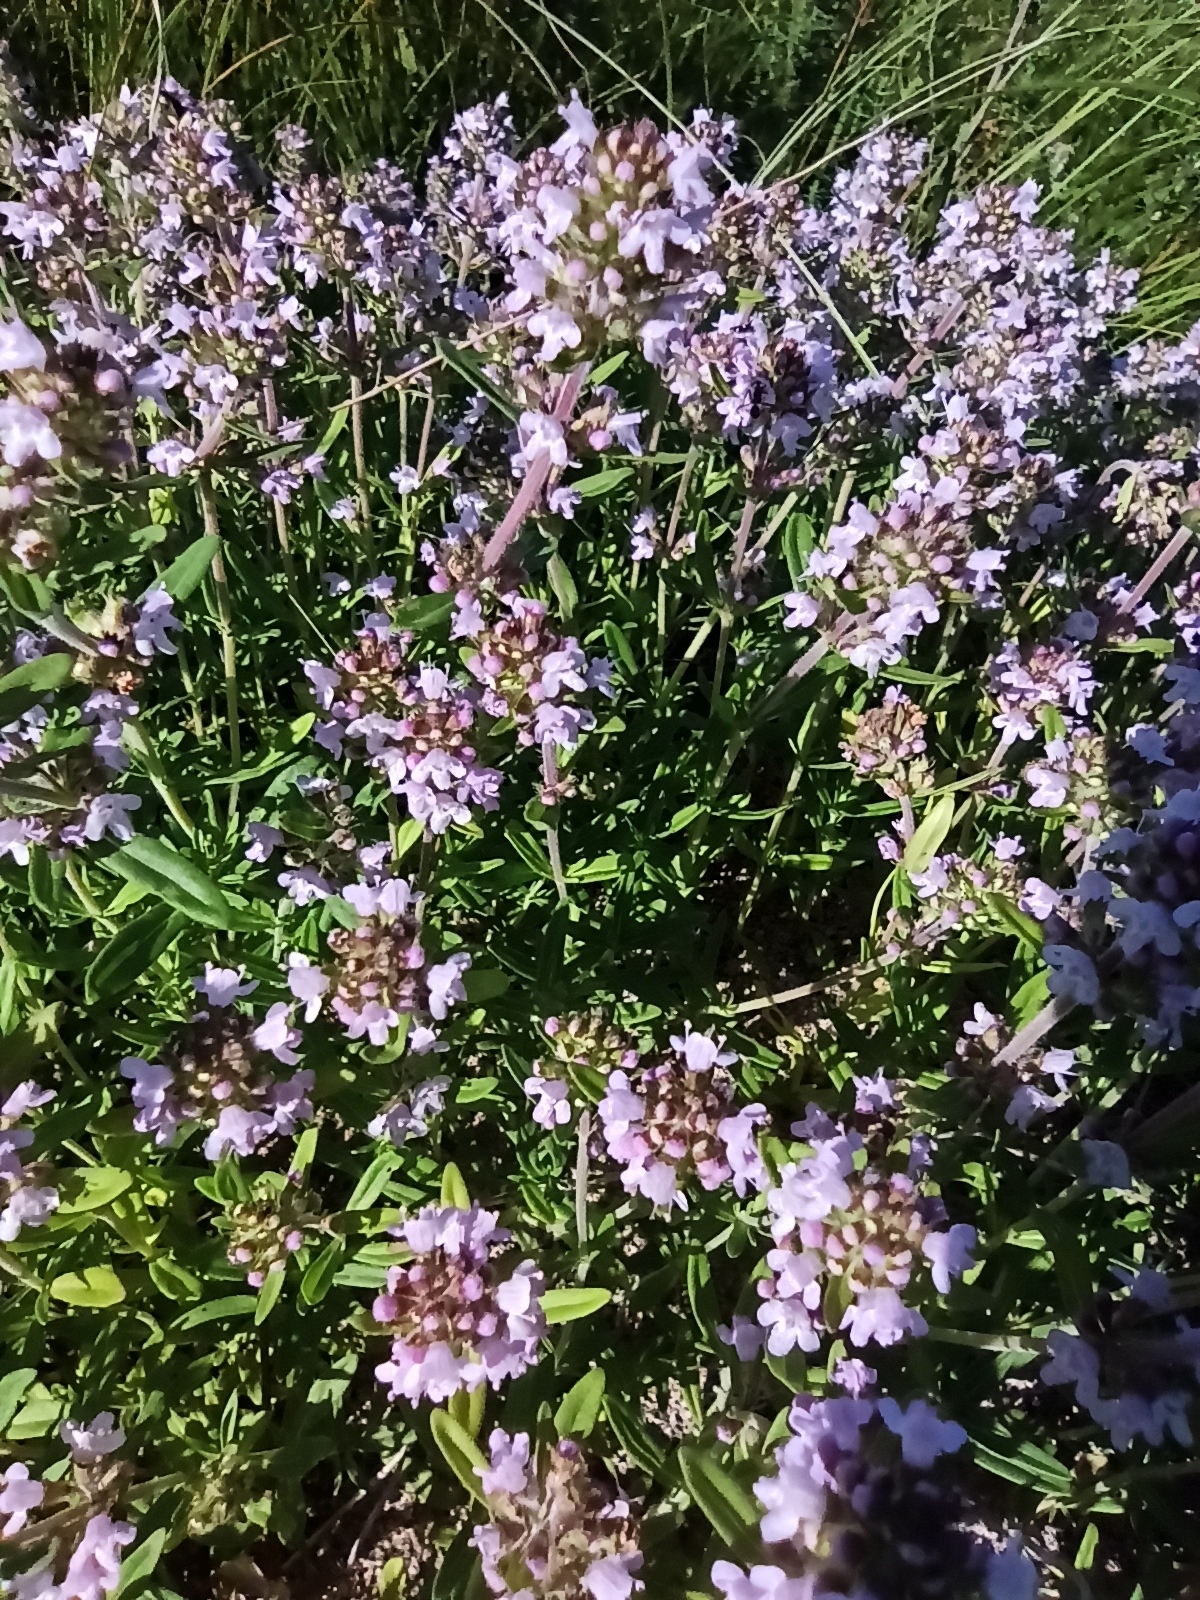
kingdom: Plantae
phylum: Tracheophyta
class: Magnoliopsida
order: Lamiales
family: Lamiaceae
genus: Thymus
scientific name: Thymus pannonicus
